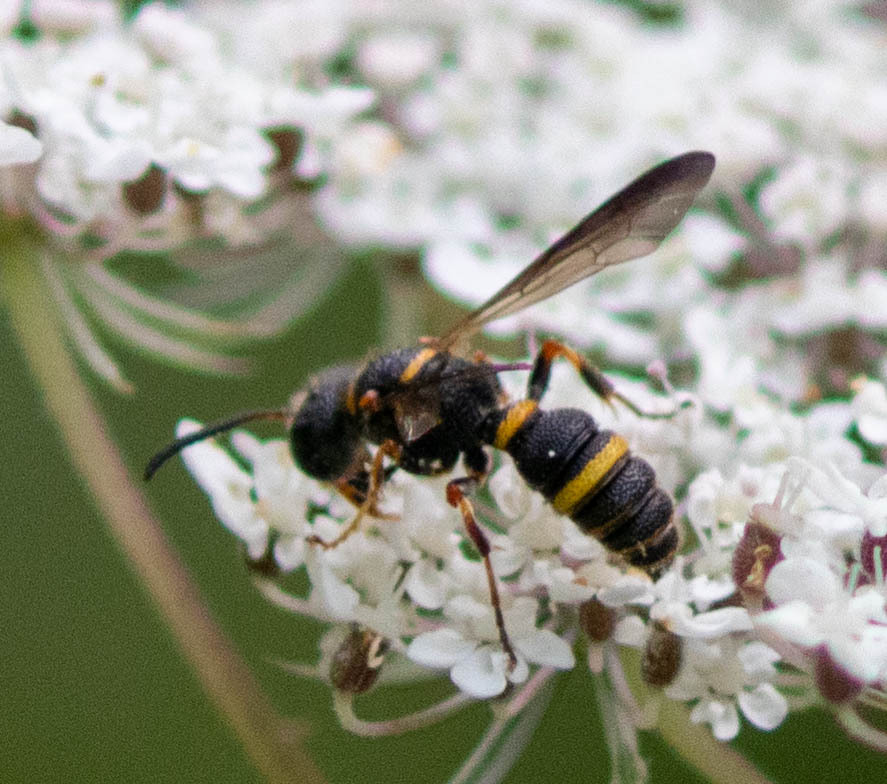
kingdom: Animalia
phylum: Arthropoda
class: Insecta
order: Hymenoptera
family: Crabronidae
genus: Cerceris
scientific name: Cerceris insolita
